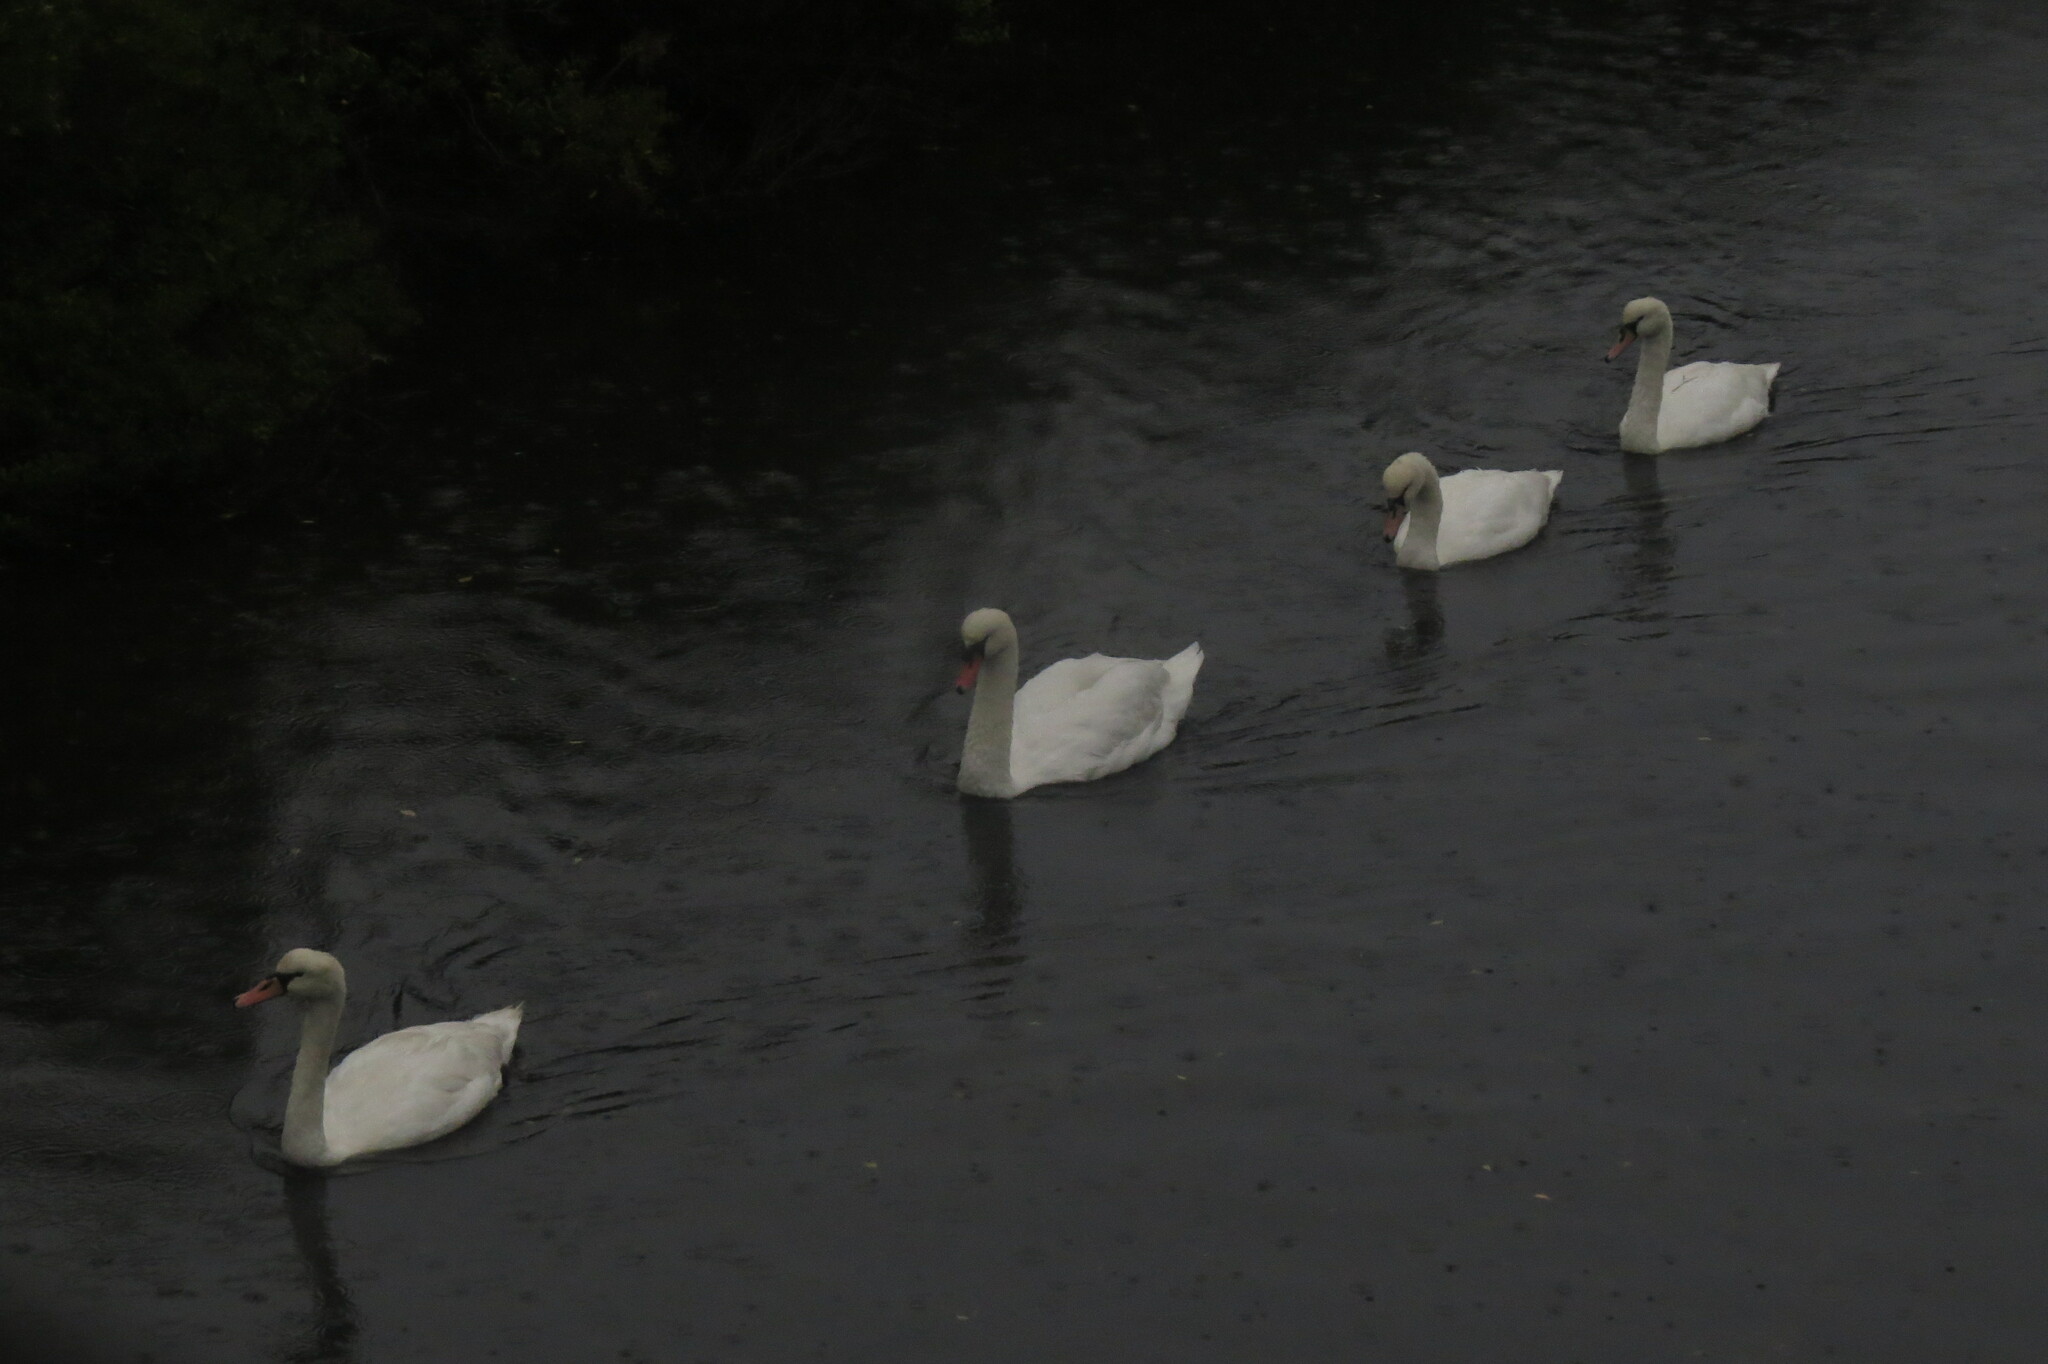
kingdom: Animalia
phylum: Chordata
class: Aves
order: Anseriformes
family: Anatidae
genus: Cygnus
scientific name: Cygnus olor
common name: Mute swan
